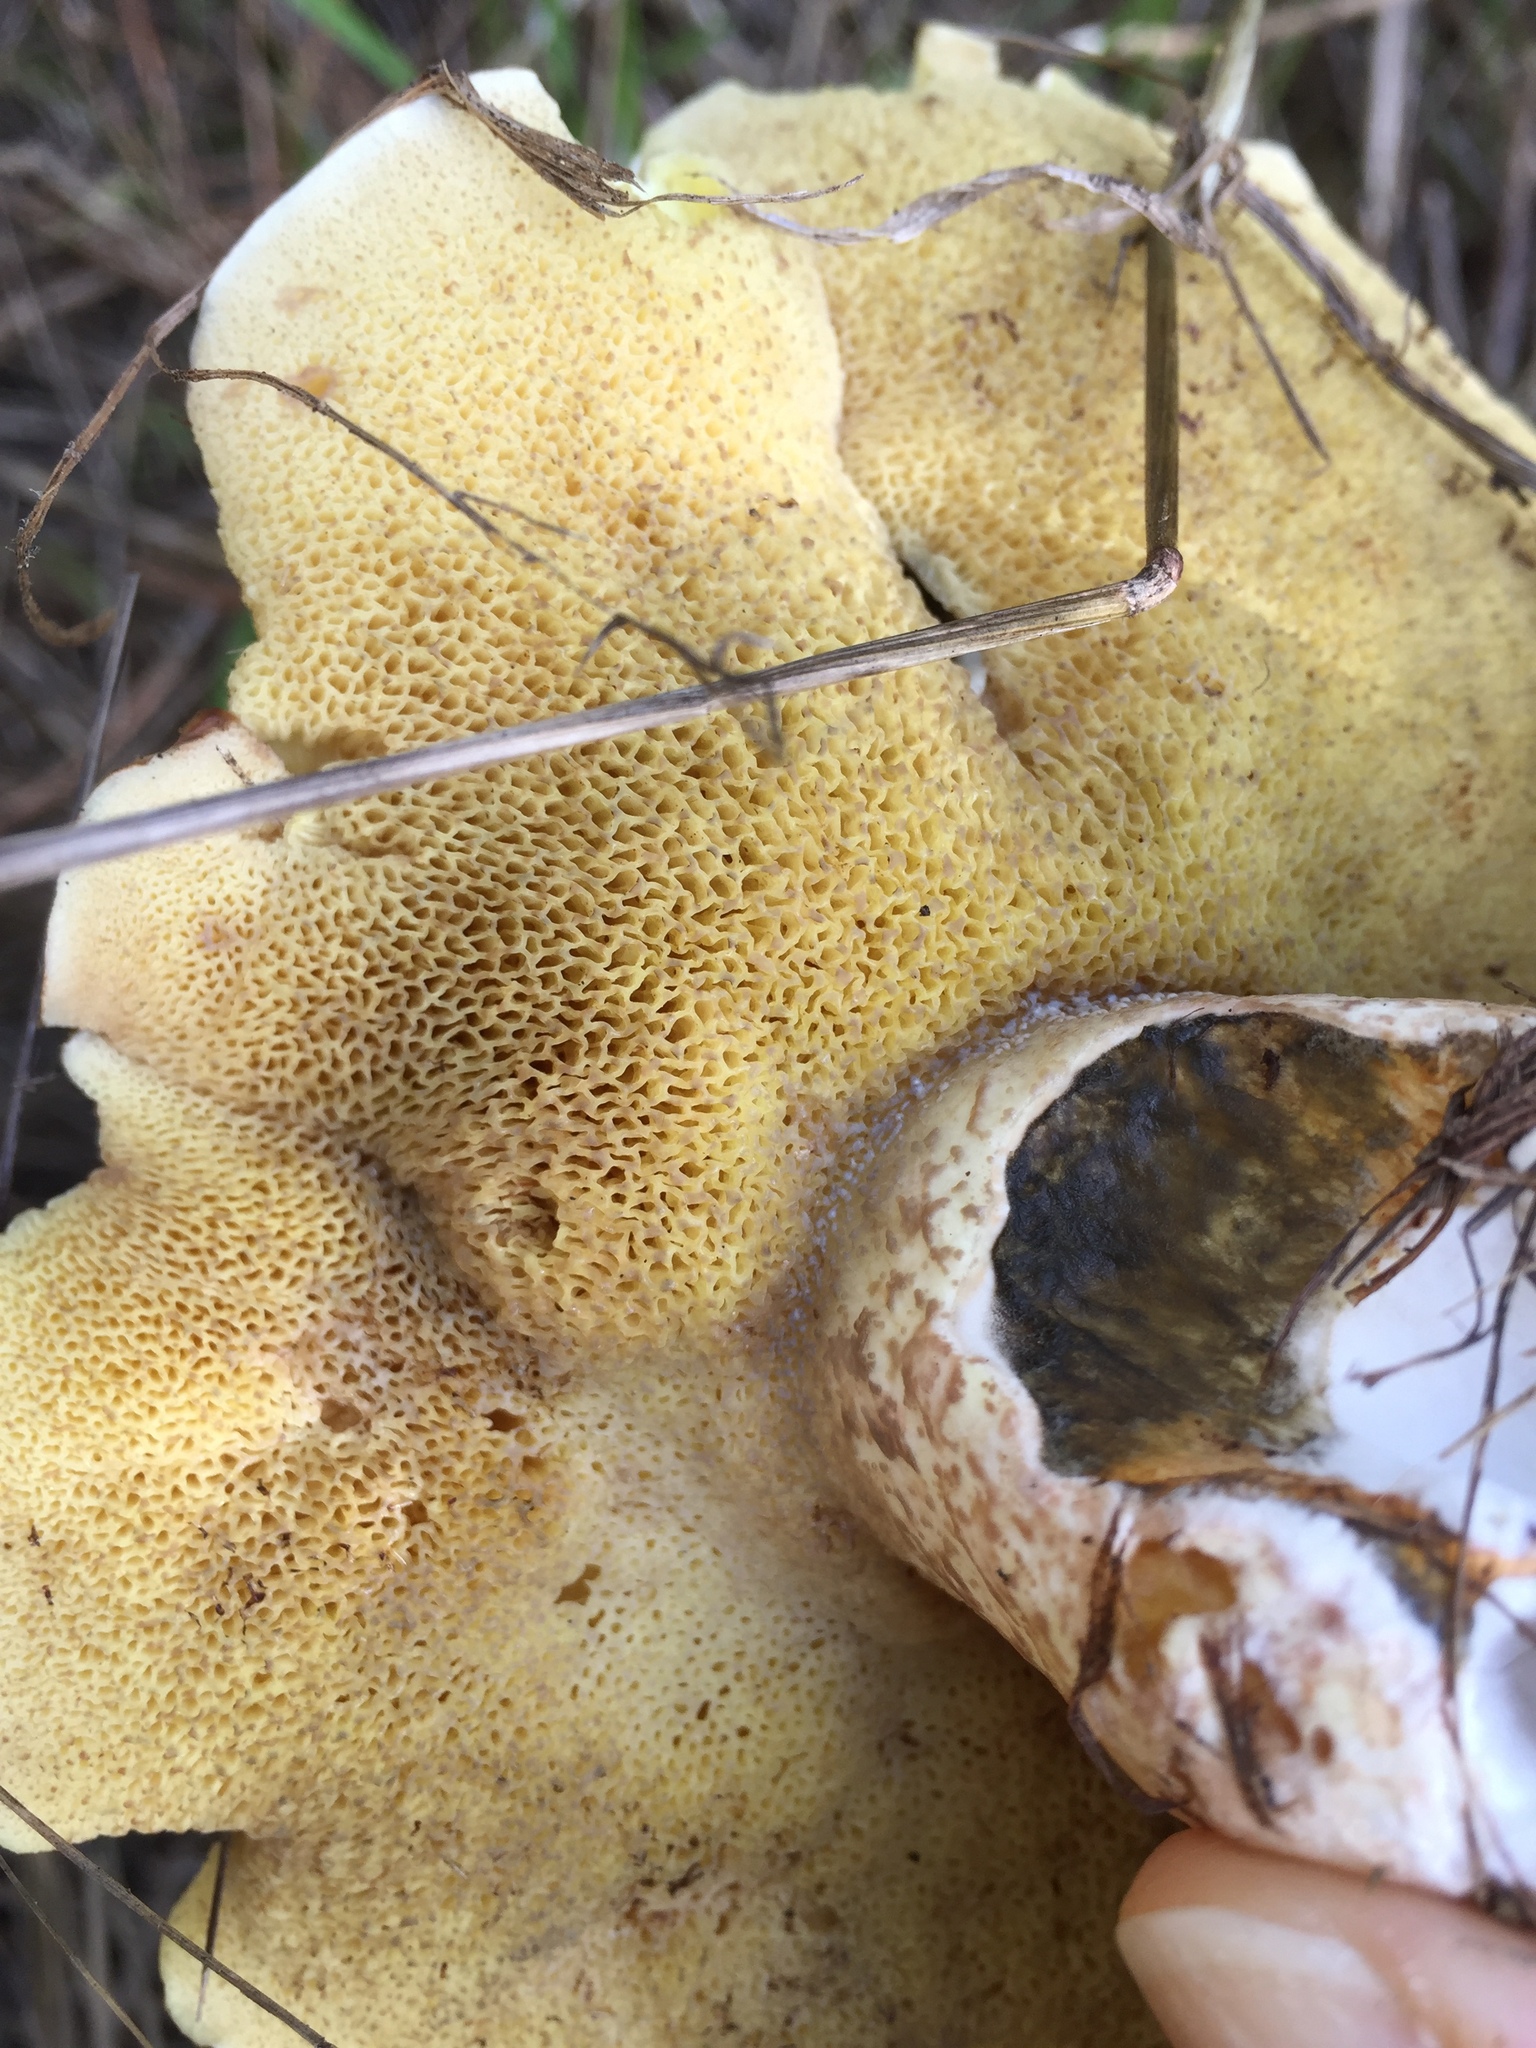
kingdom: Fungi
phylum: Basidiomycota
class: Agaricomycetes
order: Boletales
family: Suillaceae
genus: Suillus
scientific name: Suillus pungens
